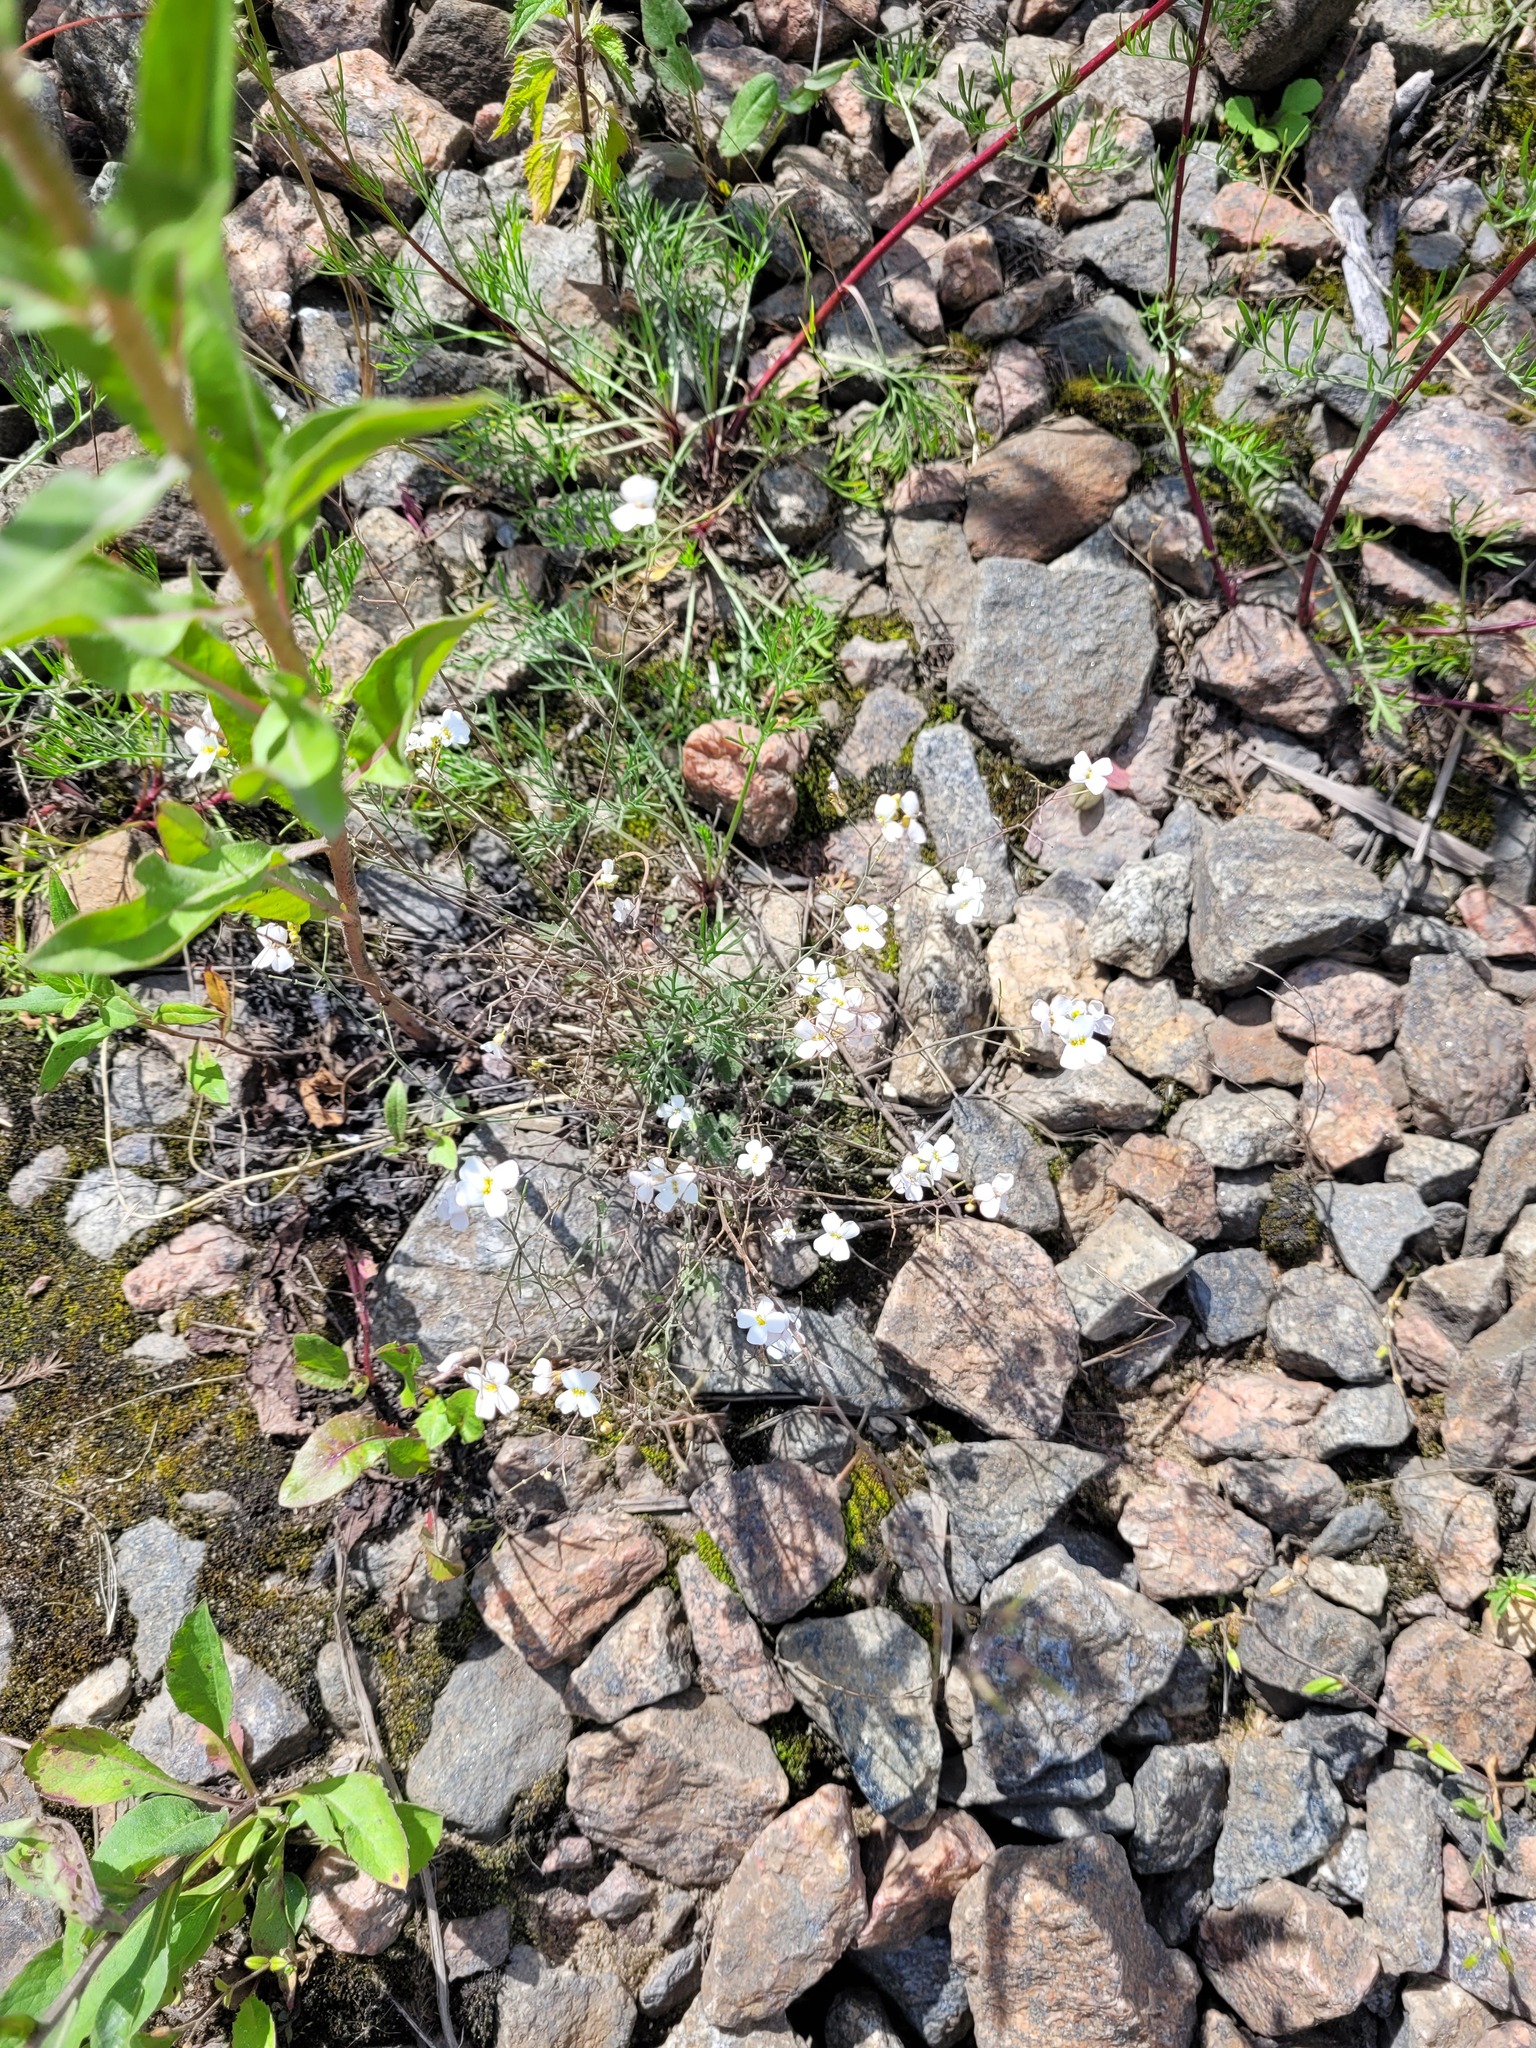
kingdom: Plantae
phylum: Tracheophyta
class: Magnoliopsida
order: Brassicales
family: Brassicaceae
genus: Arabidopsis
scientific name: Arabidopsis arenosa
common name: Sand rock-cress
